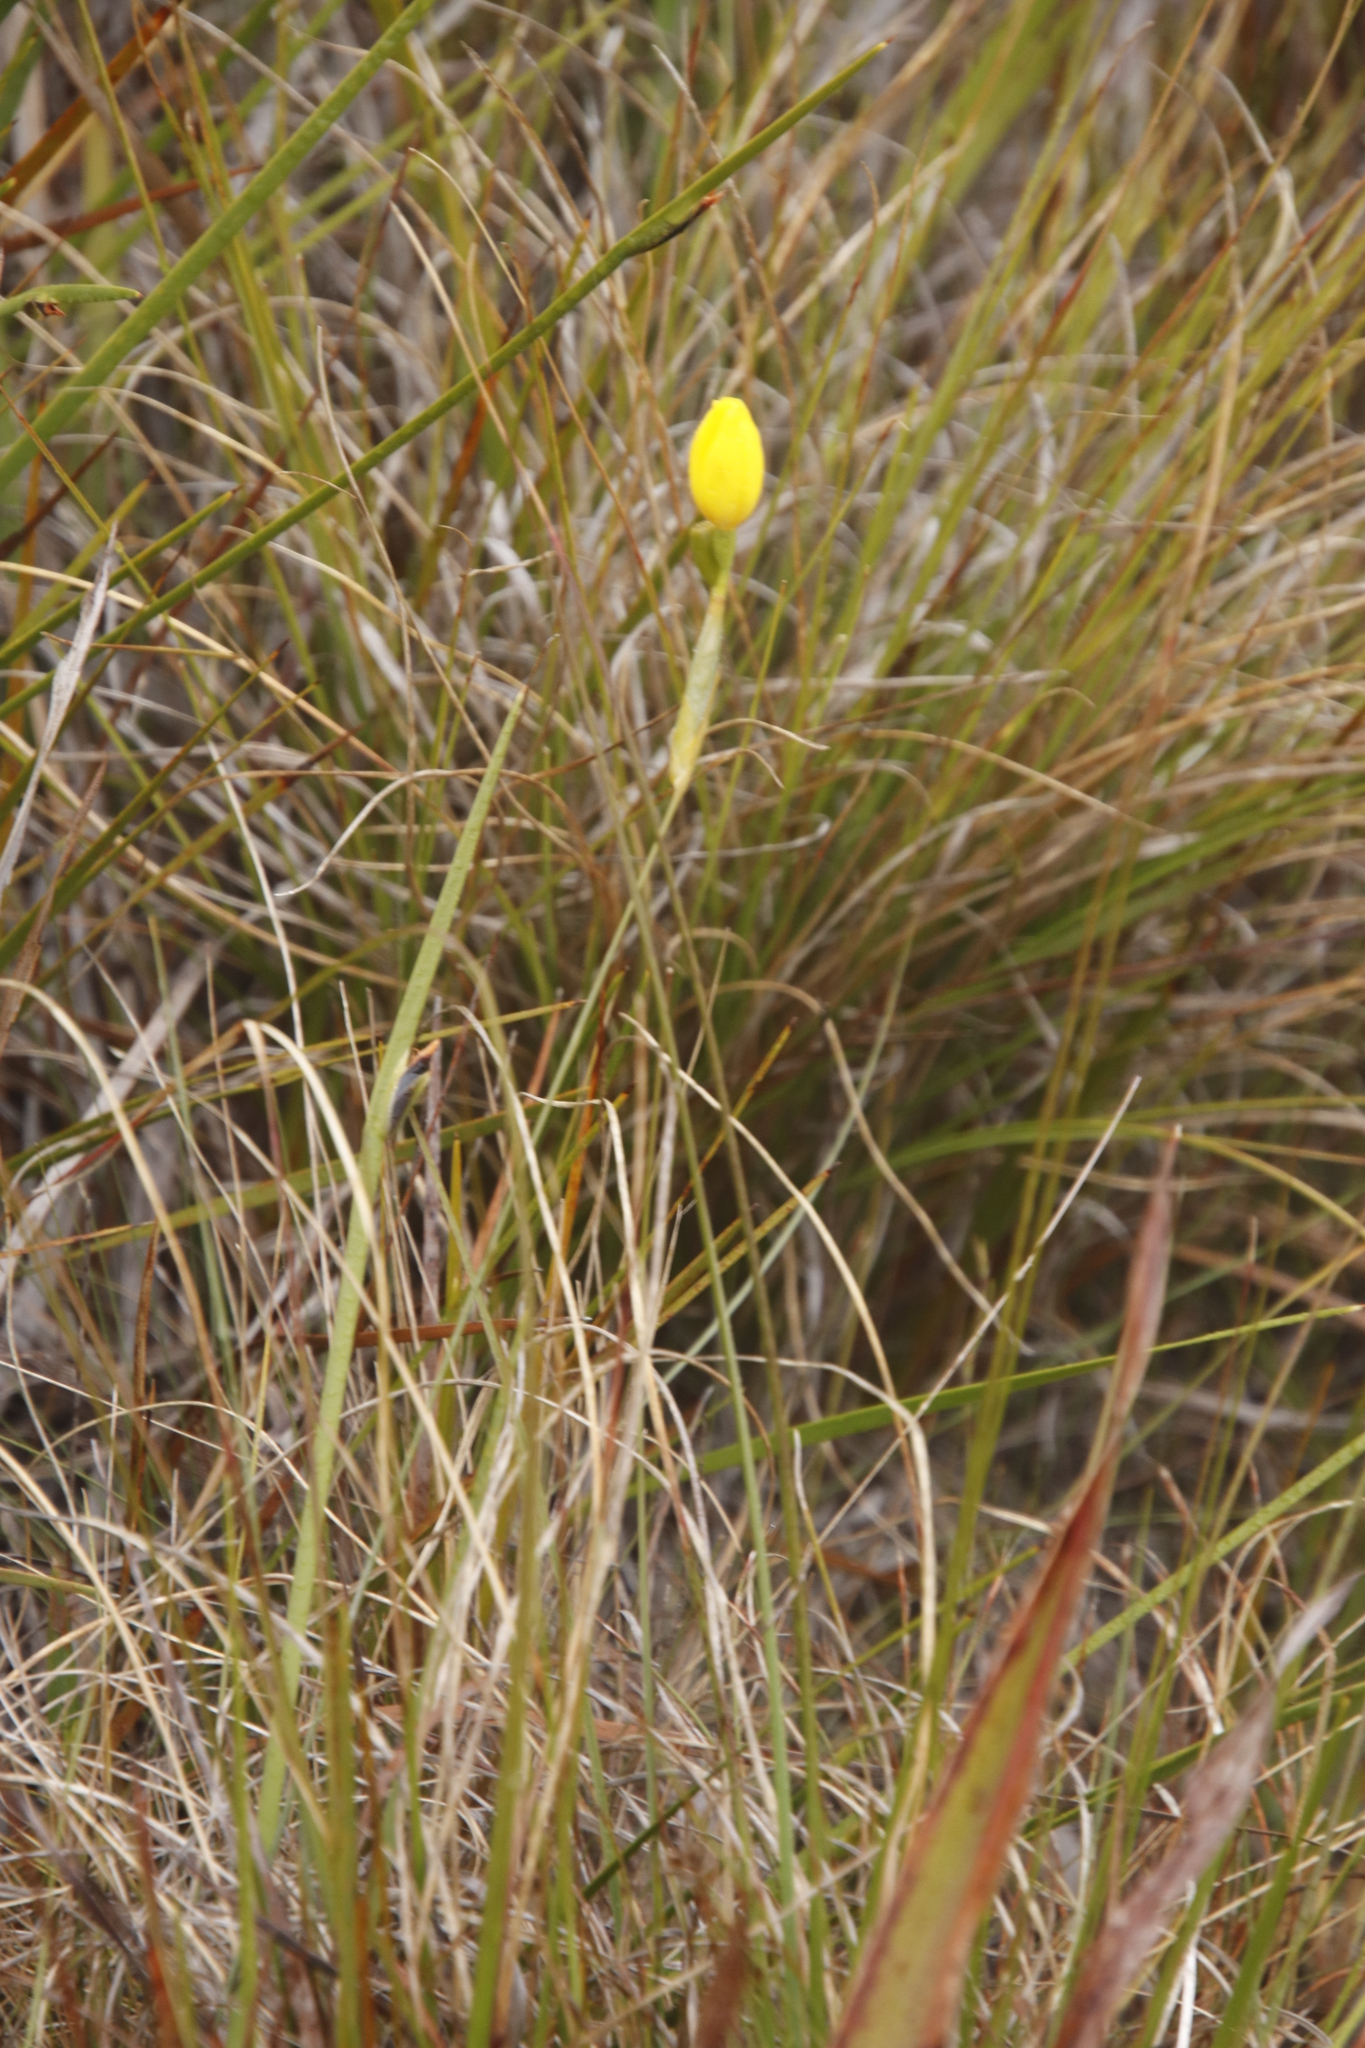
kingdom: Plantae
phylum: Tracheophyta
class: Liliopsida
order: Asparagales
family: Iridaceae
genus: Bobartia
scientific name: Bobartia filiformis
